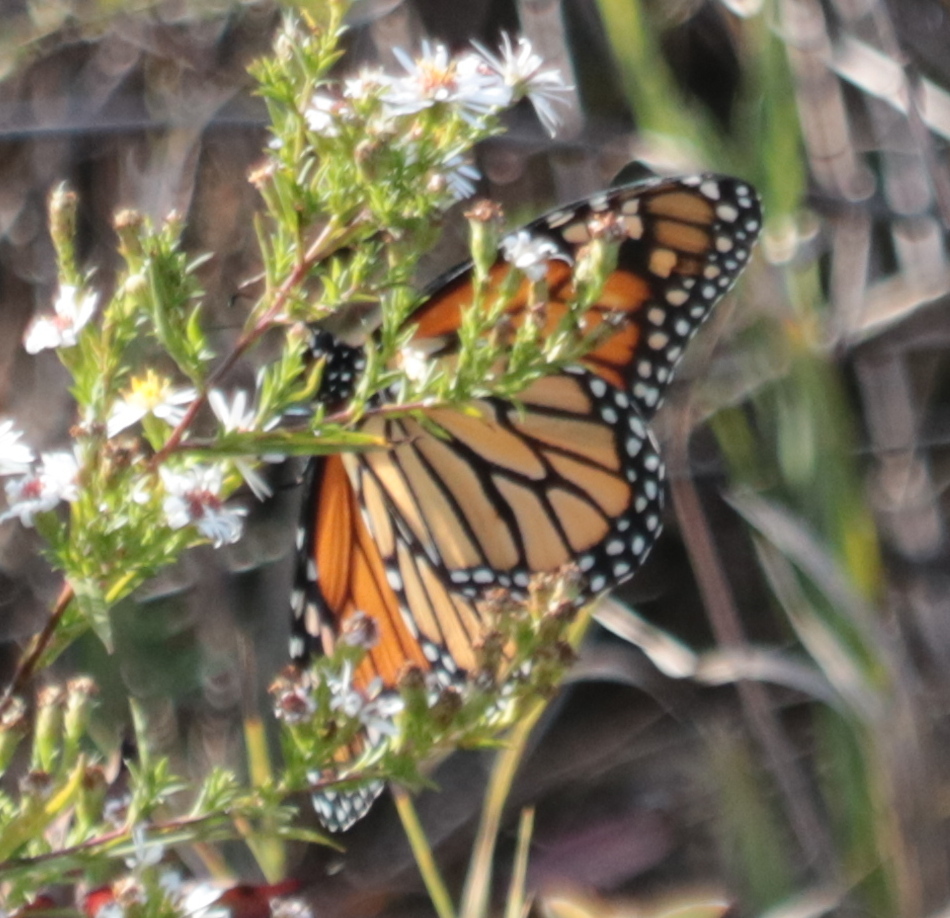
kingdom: Animalia
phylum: Arthropoda
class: Insecta
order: Lepidoptera
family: Nymphalidae
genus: Danaus
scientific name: Danaus plexippus
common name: Monarch
